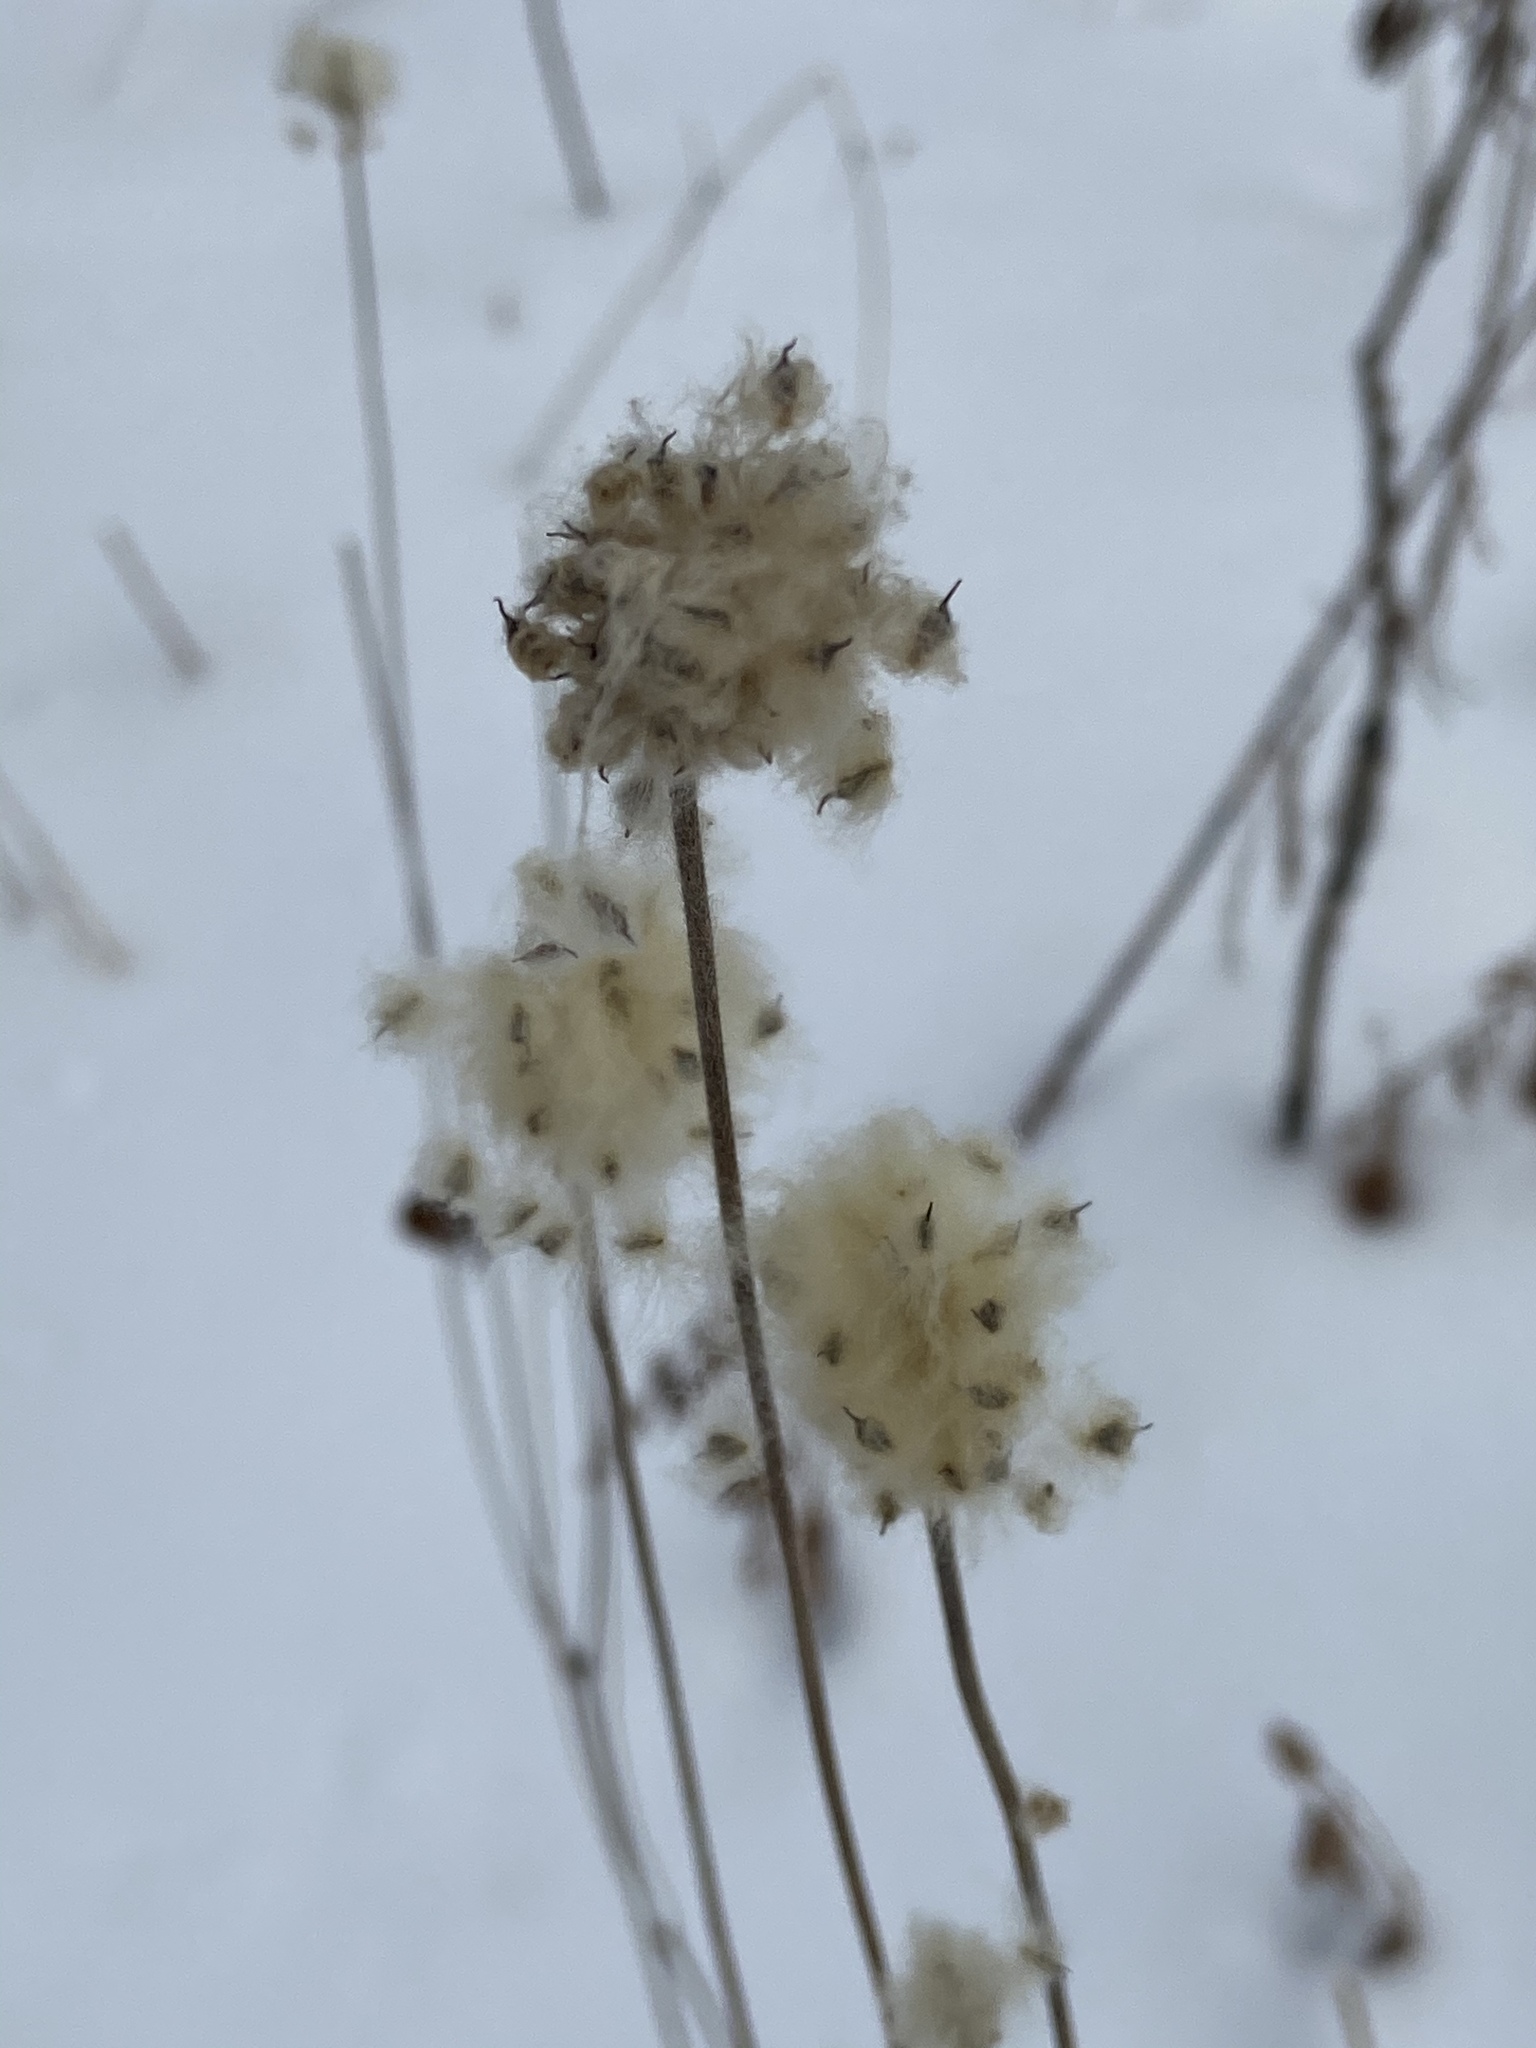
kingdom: Plantae
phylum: Tracheophyta
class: Magnoliopsida
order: Ranunculales
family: Ranunculaceae
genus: Anemone
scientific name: Anemone virginiana
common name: Tall anemone
